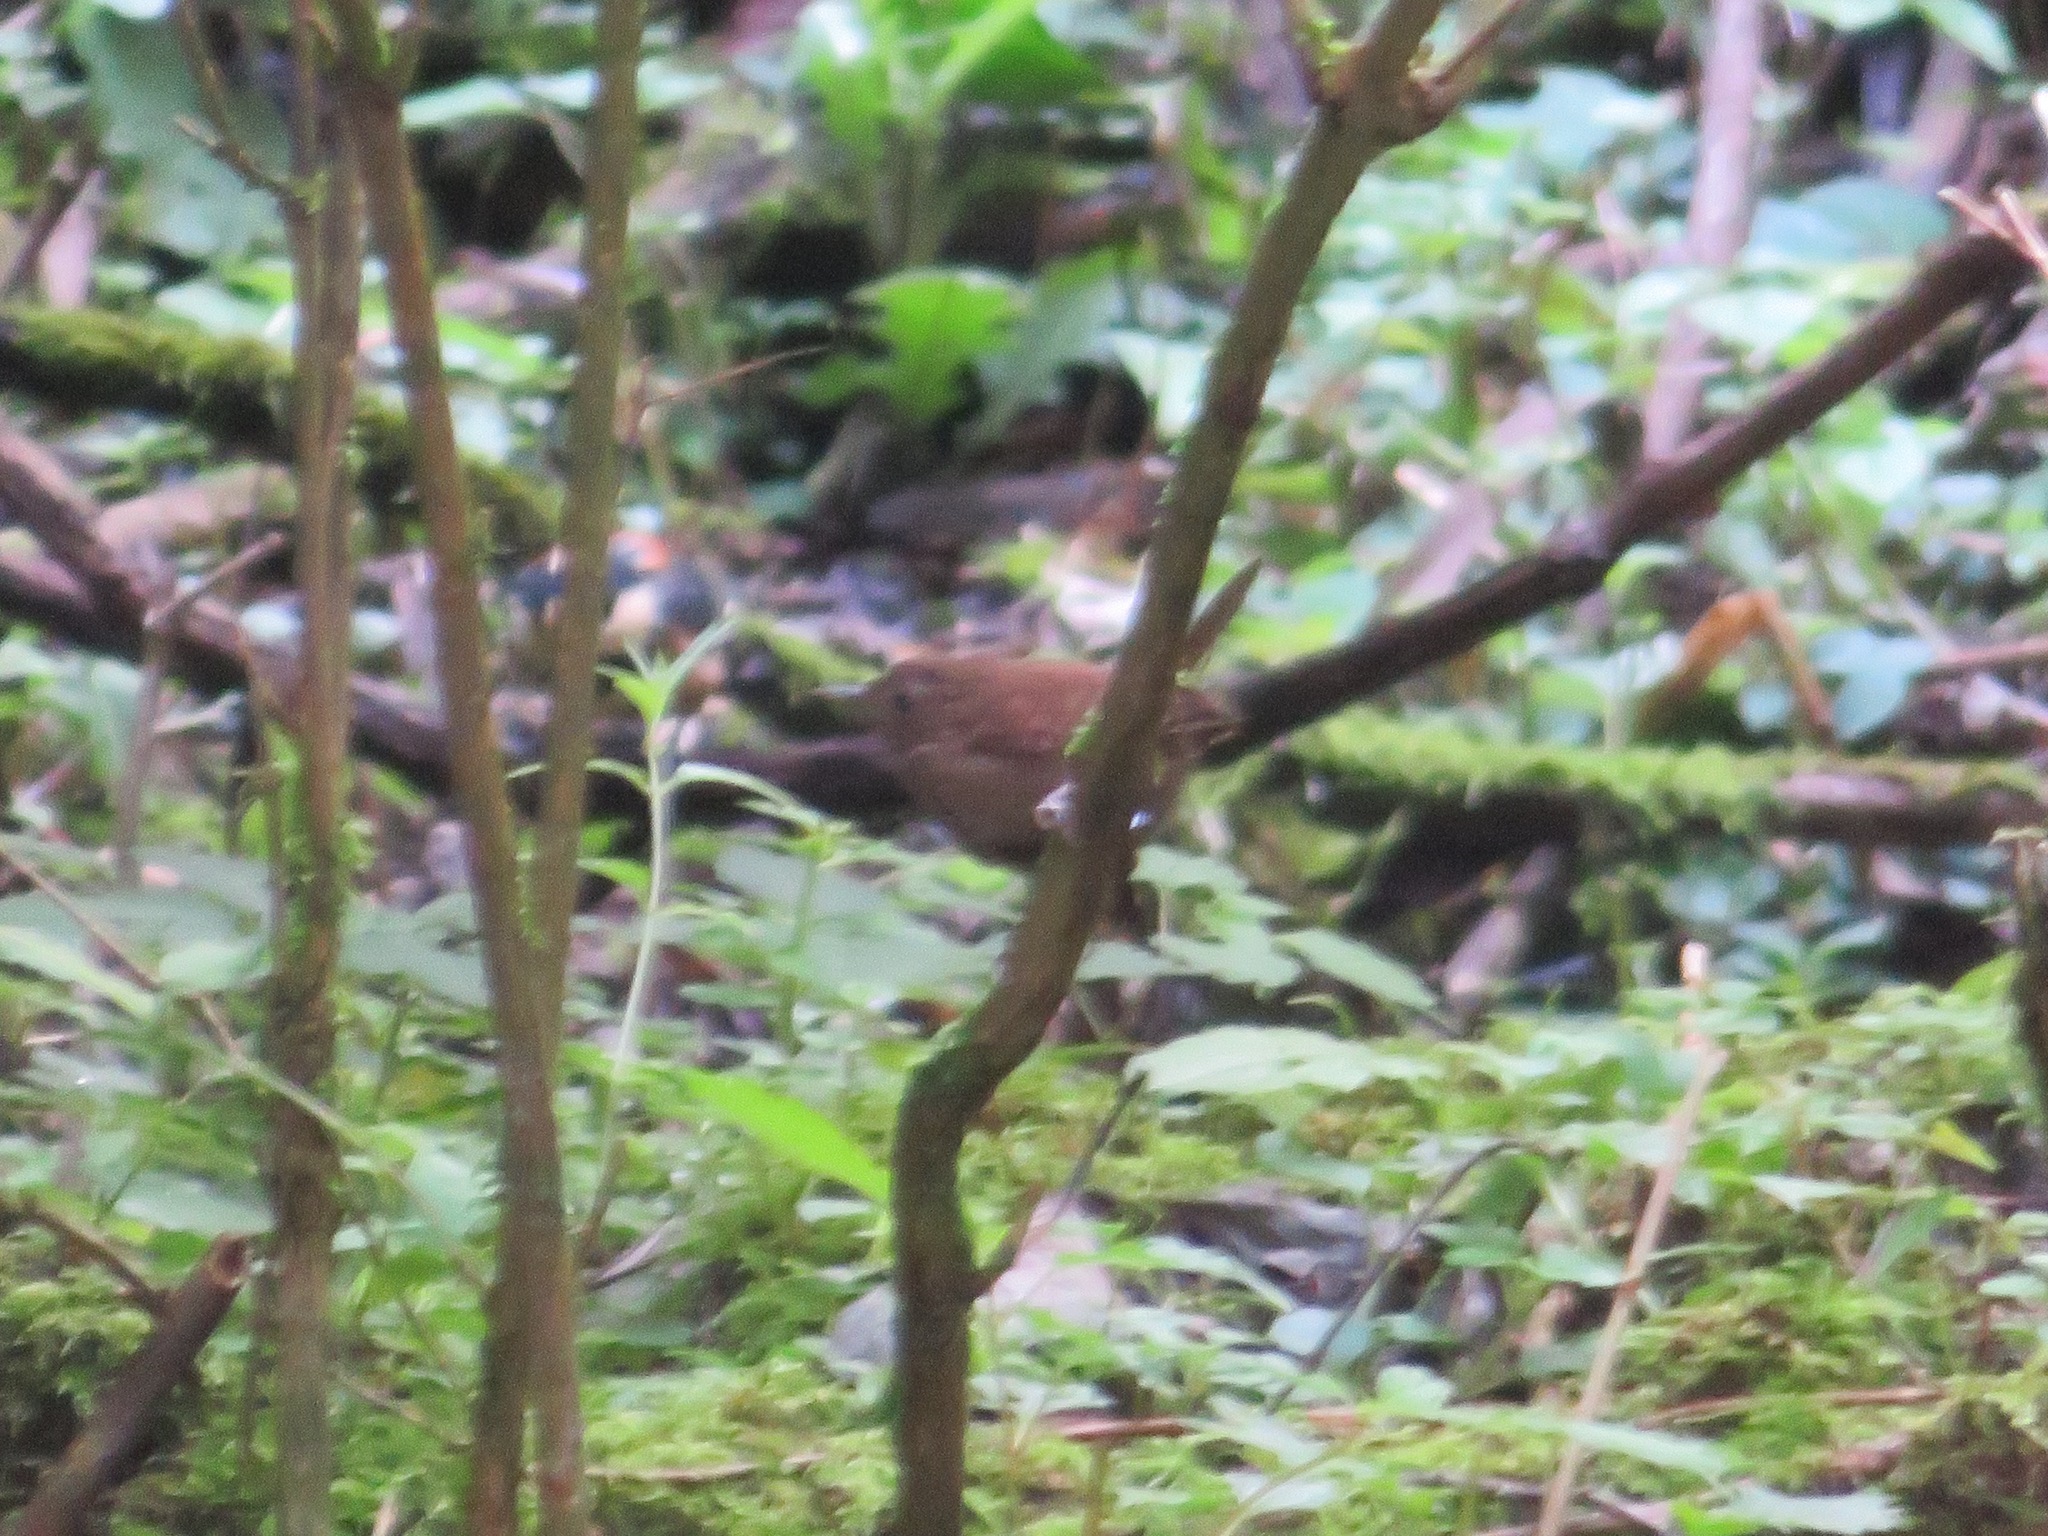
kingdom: Animalia
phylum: Chordata
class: Aves
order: Passeriformes
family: Troglodytidae
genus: Troglodytes
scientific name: Troglodytes troglodytes
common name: Eurasian wren
